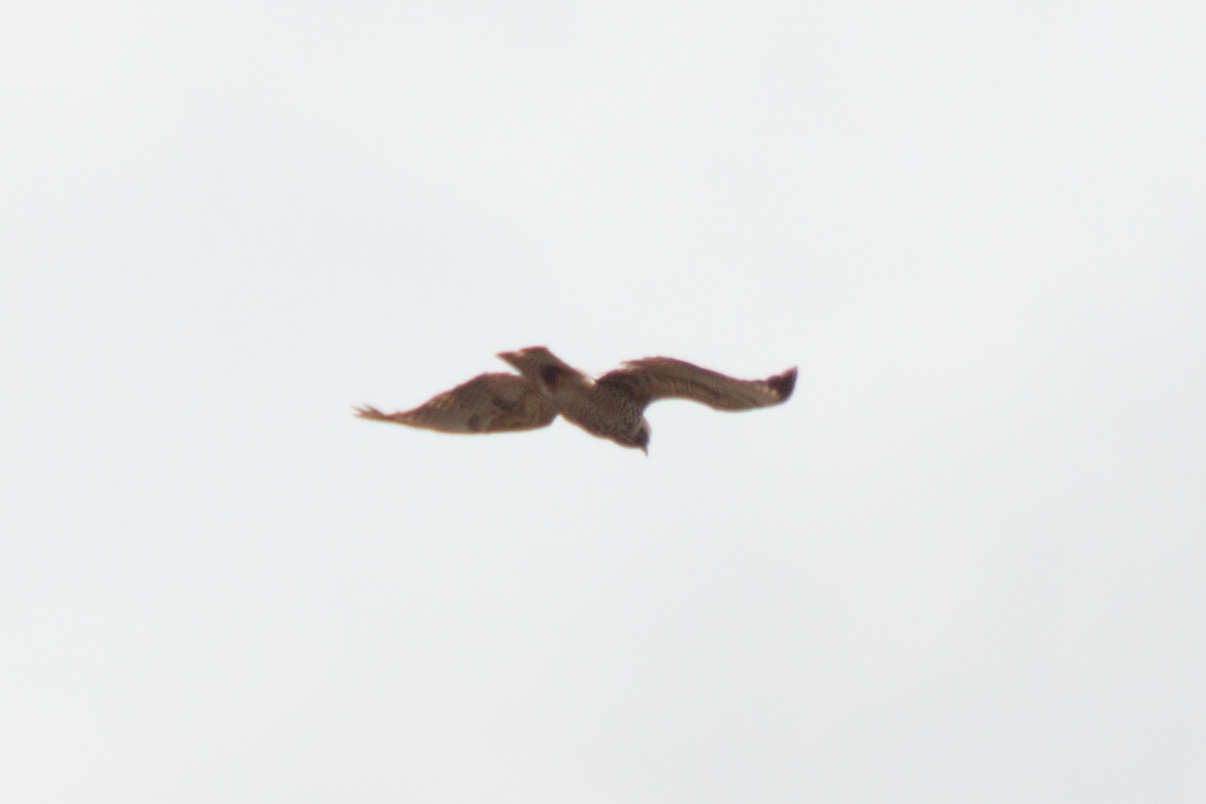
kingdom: Animalia
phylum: Chordata
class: Aves
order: Accipitriformes
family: Accipitridae
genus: Buteo
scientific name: Buteo lineatus
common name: Red-shouldered hawk
